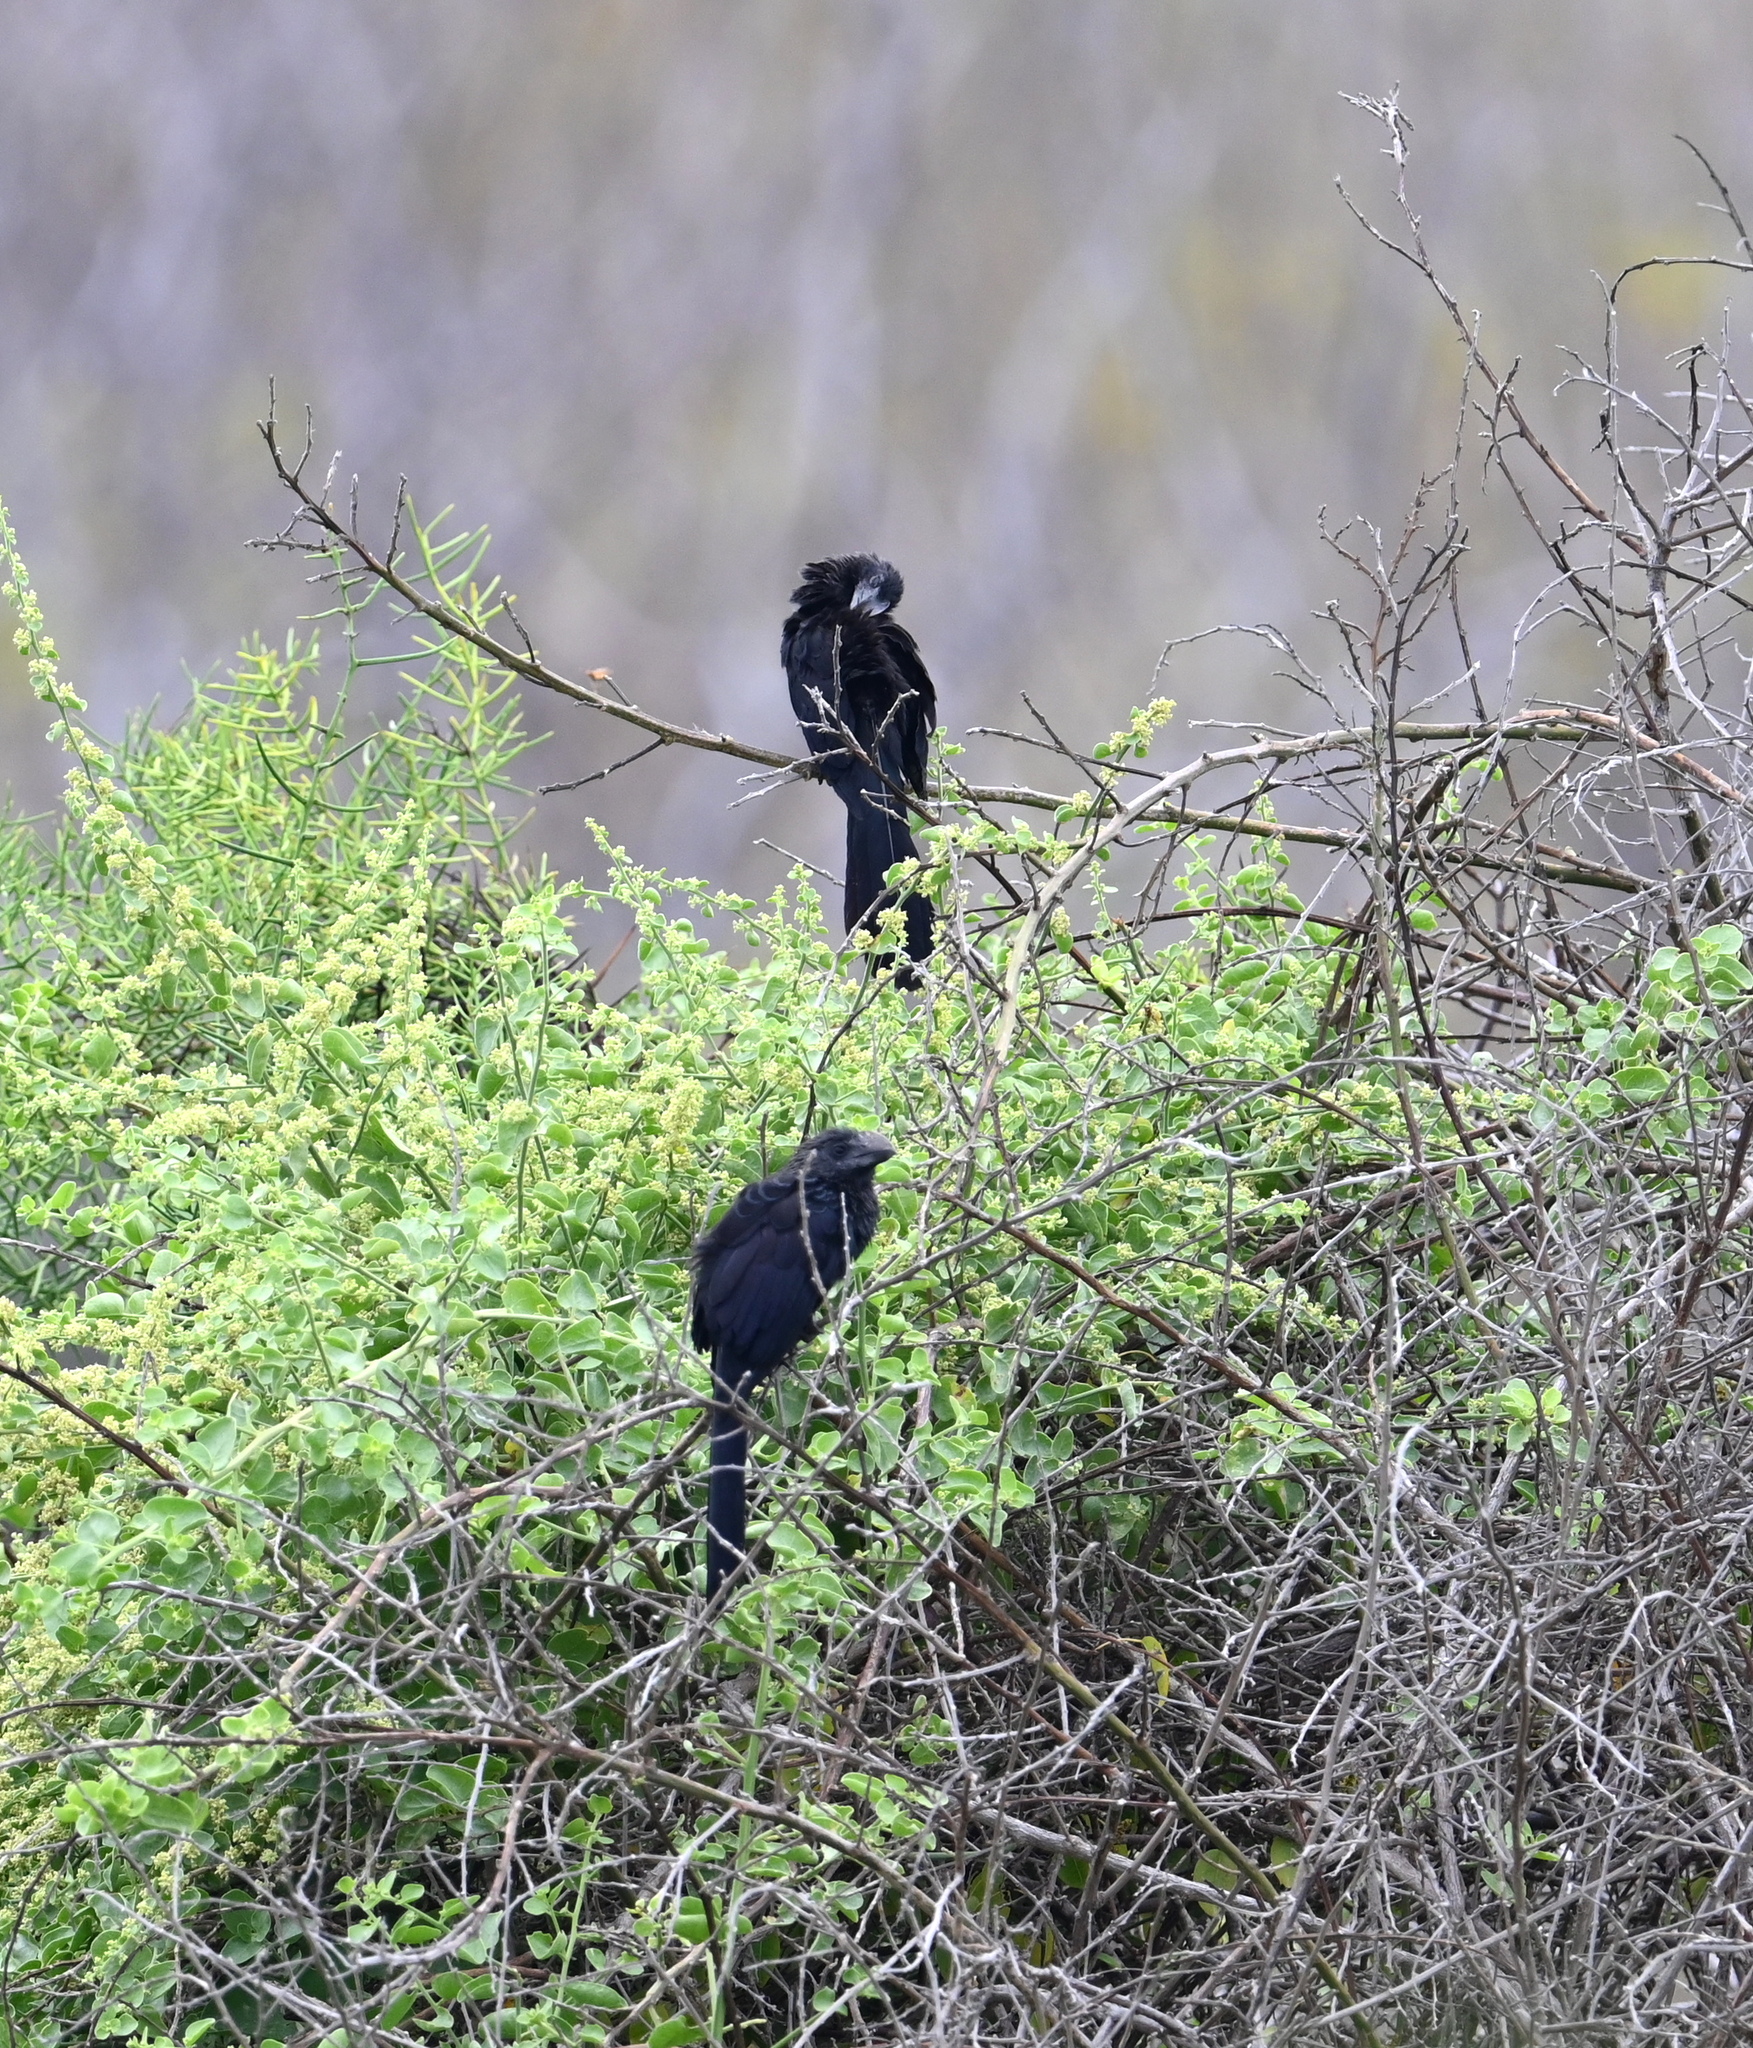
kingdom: Animalia
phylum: Chordata
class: Aves
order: Cuculiformes
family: Cuculidae
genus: Crotophaga
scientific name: Crotophaga ani
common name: Smooth-billed ani
